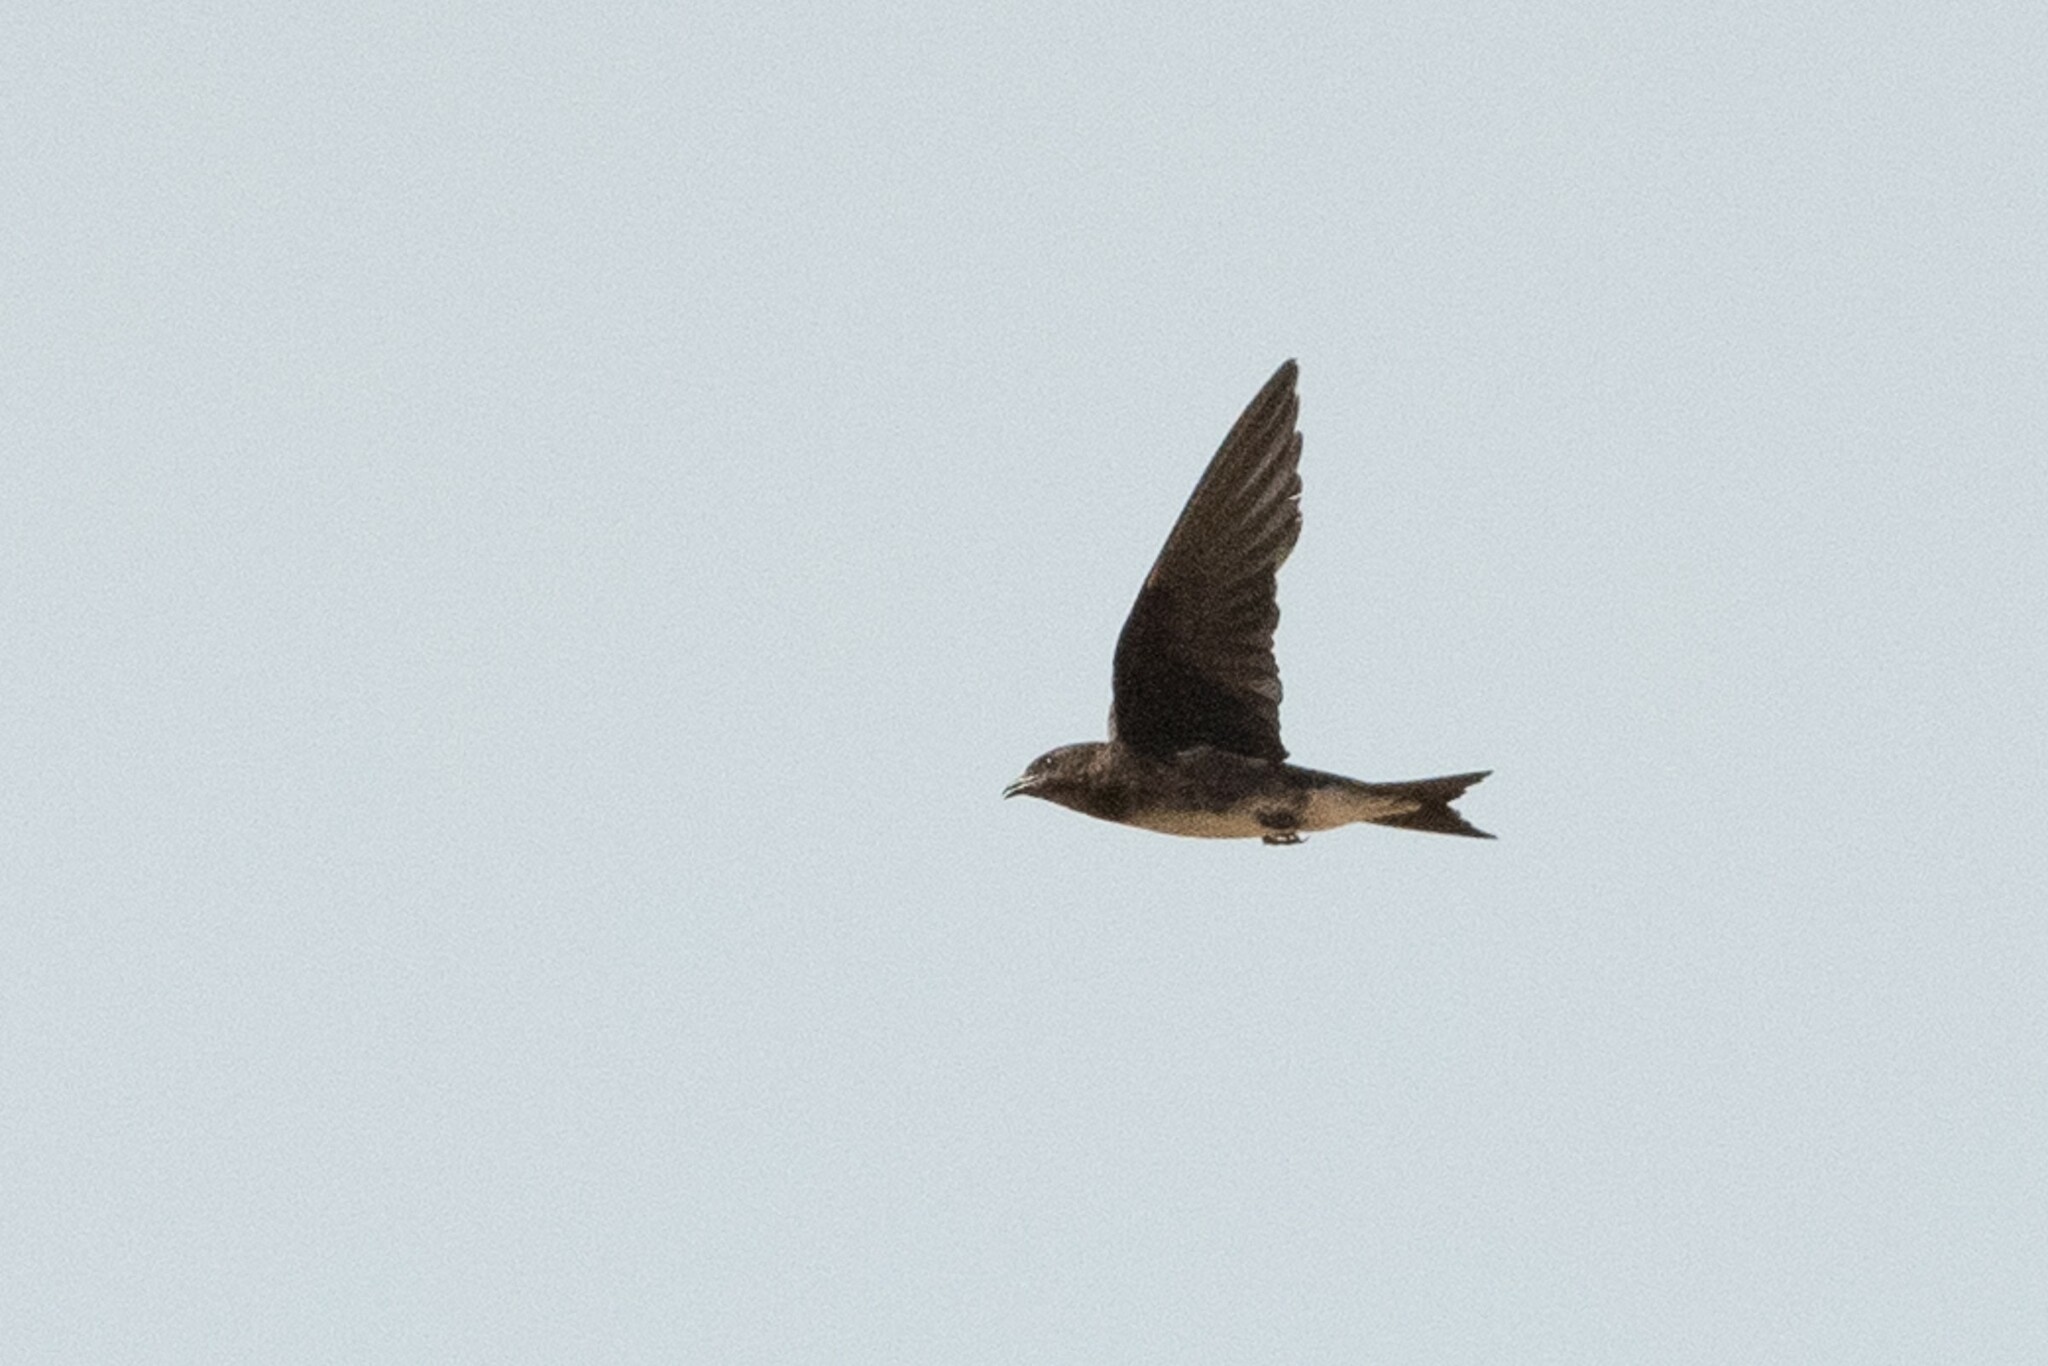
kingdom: Animalia
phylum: Chordata
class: Aves
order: Passeriformes
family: Hirundinidae
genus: Progne
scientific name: Progne dominicensis
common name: Caribbean martin
